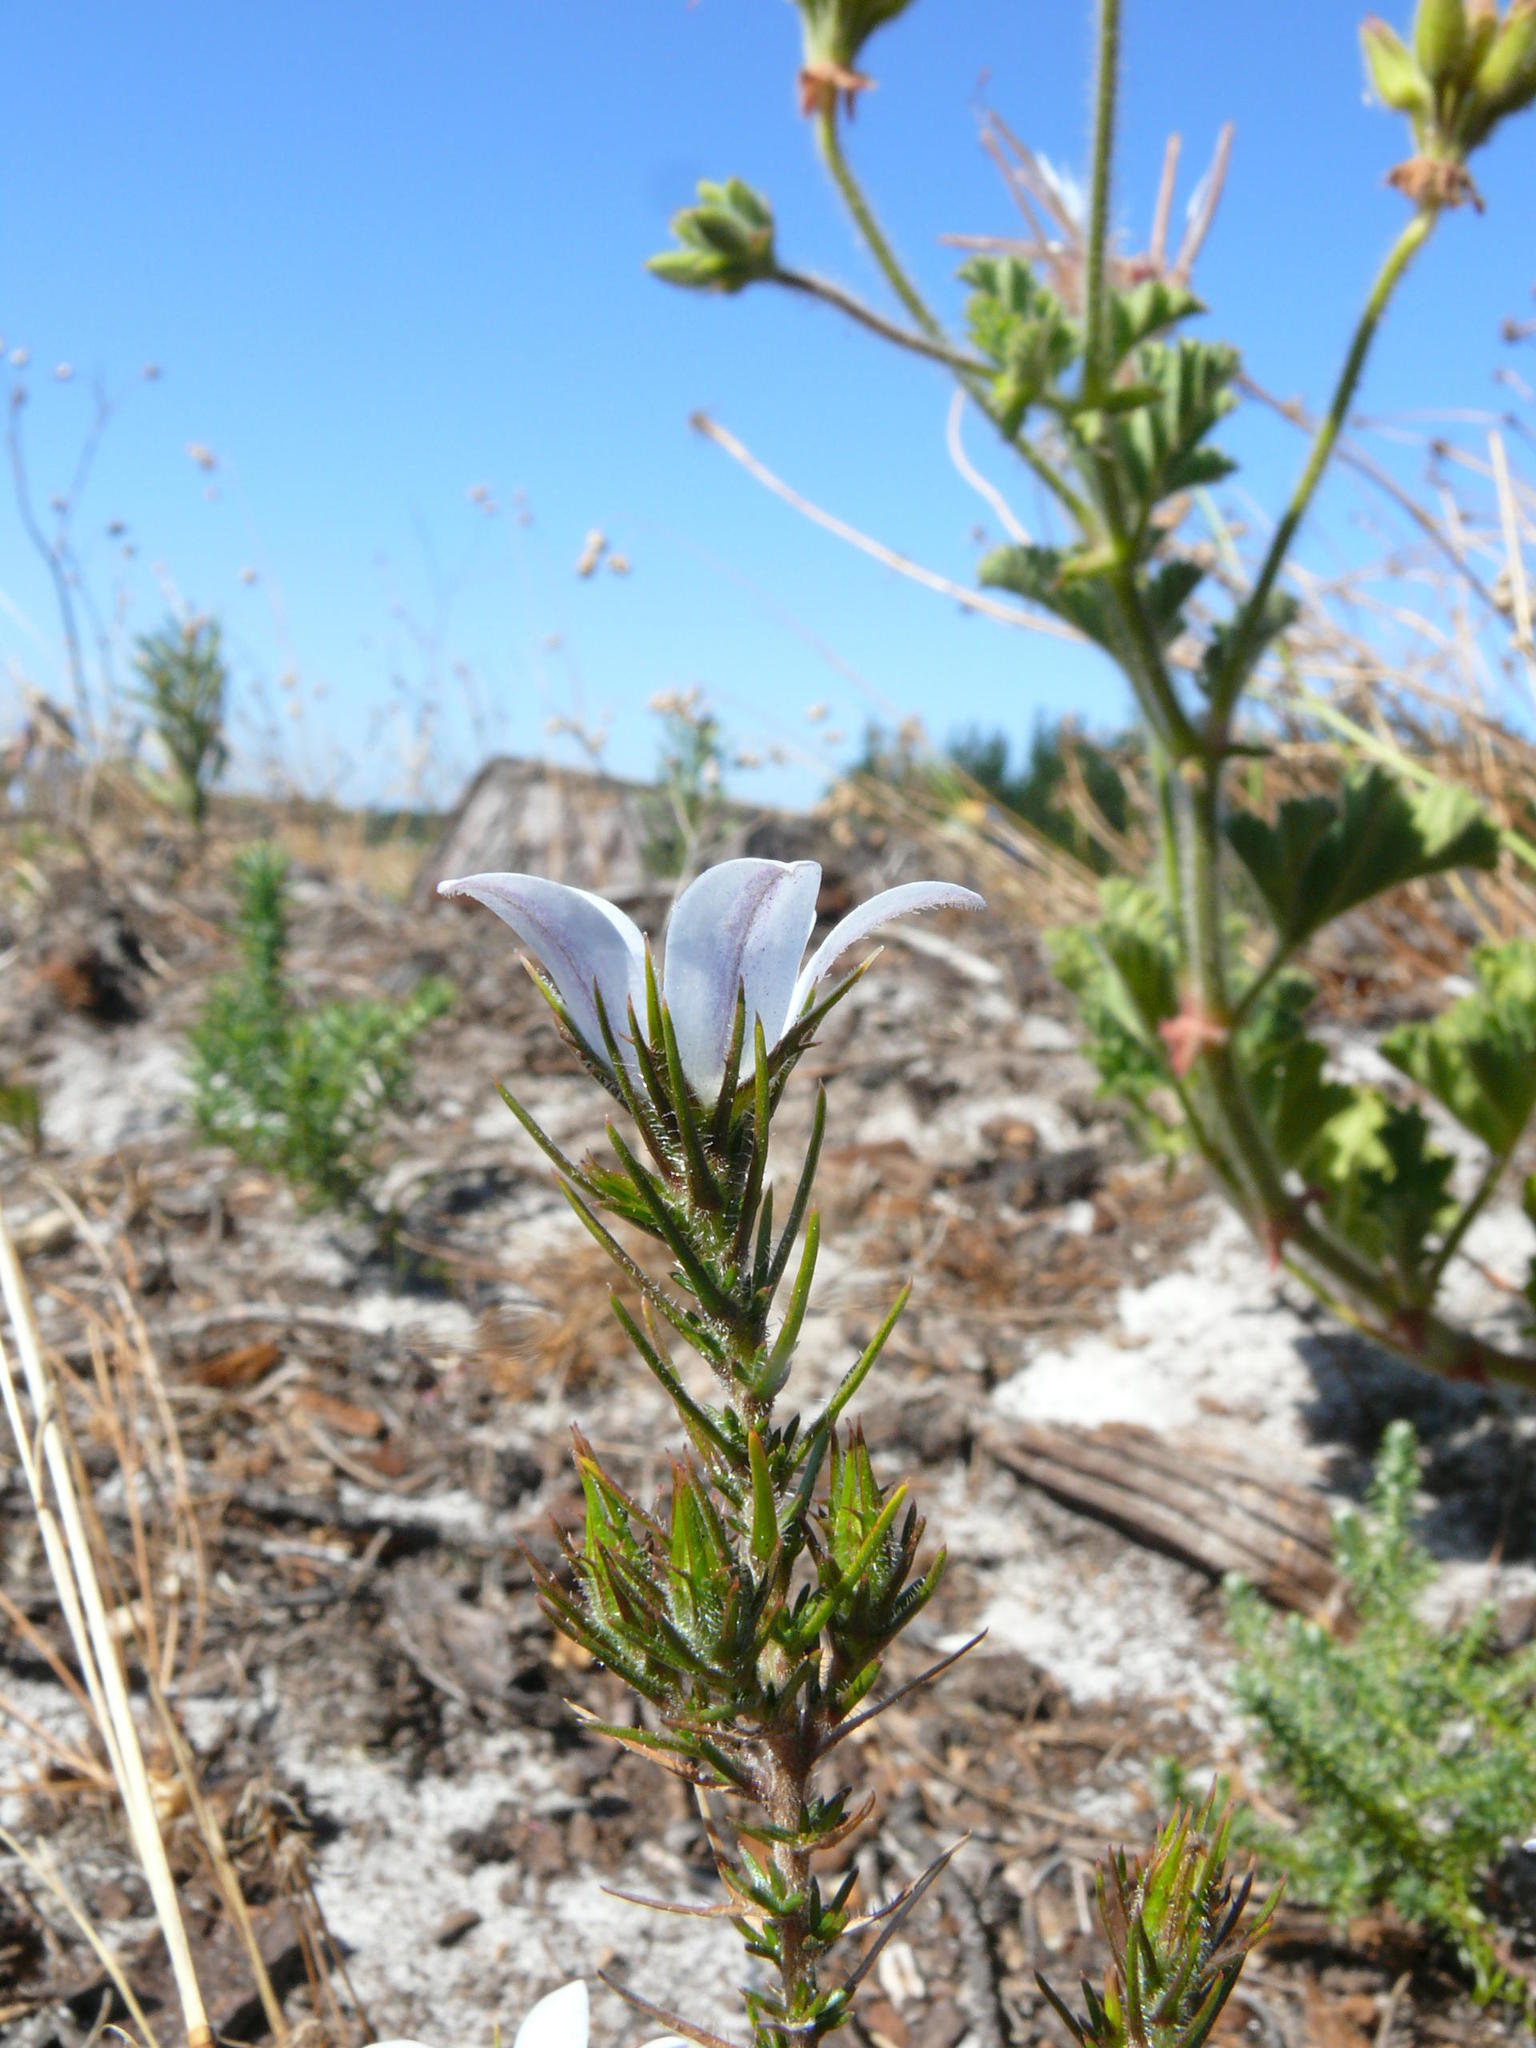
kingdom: Plantae
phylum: Tracheophyta
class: Magnoliopsida
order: Asterales
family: Campanulaceae
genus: Roella
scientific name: Roella dregeana
